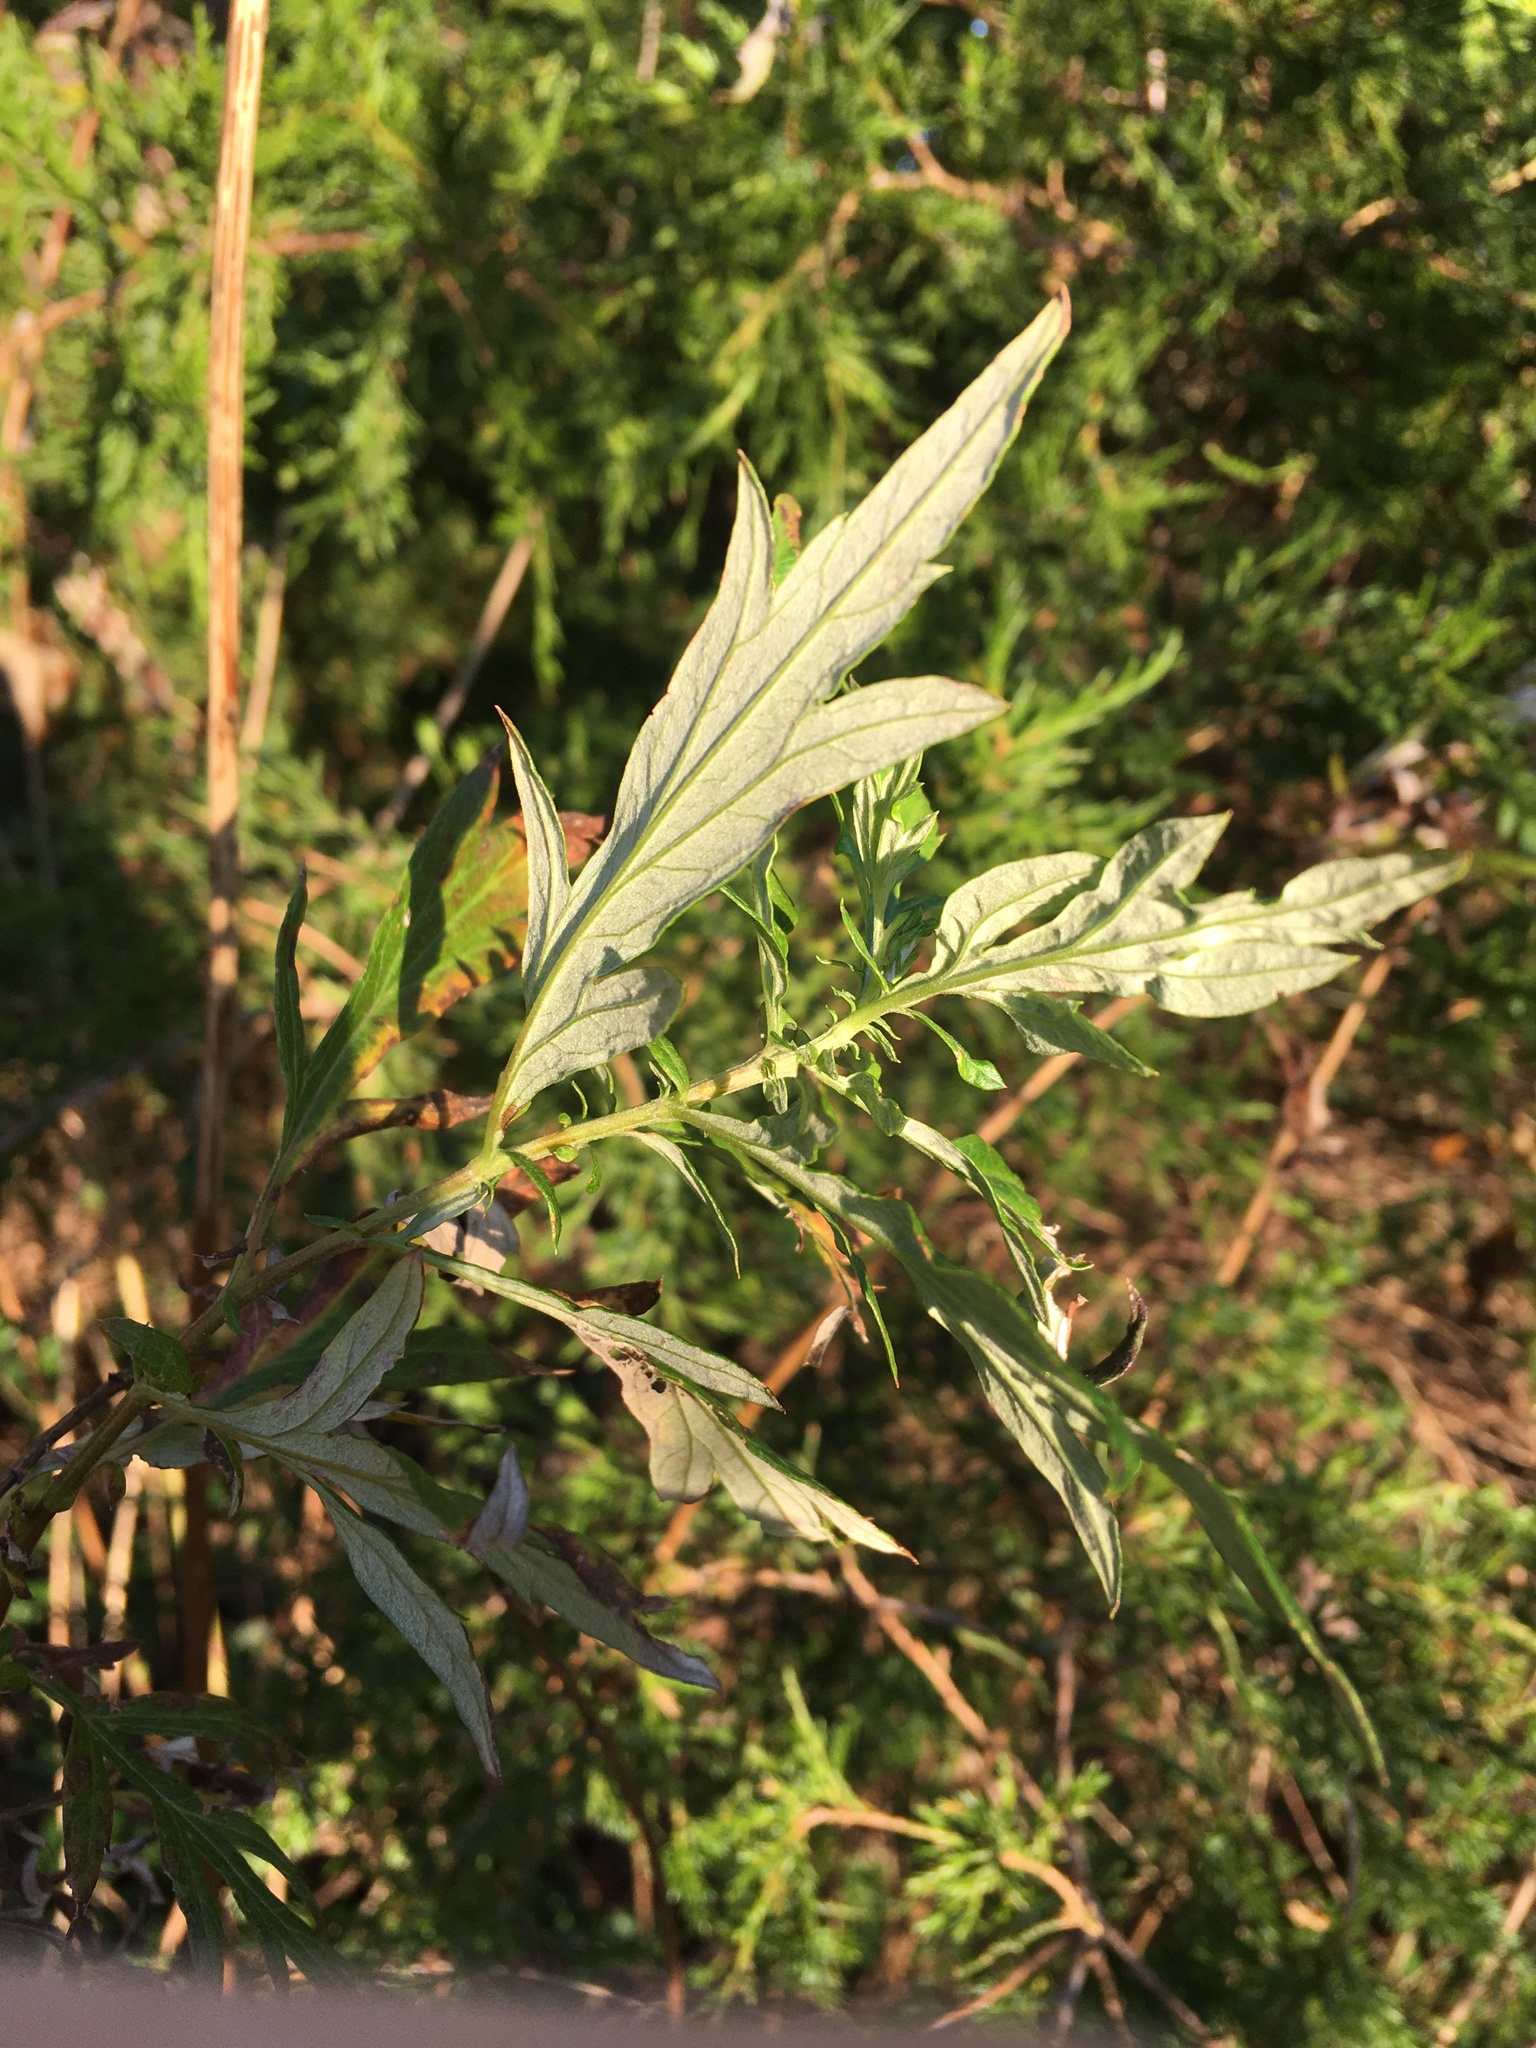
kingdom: Plantae
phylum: Tracheophyta
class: Magnoliopsida
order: Asterales
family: Asteraceae
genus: Artemisia
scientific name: Artemisia vulgaris
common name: Mugwort
